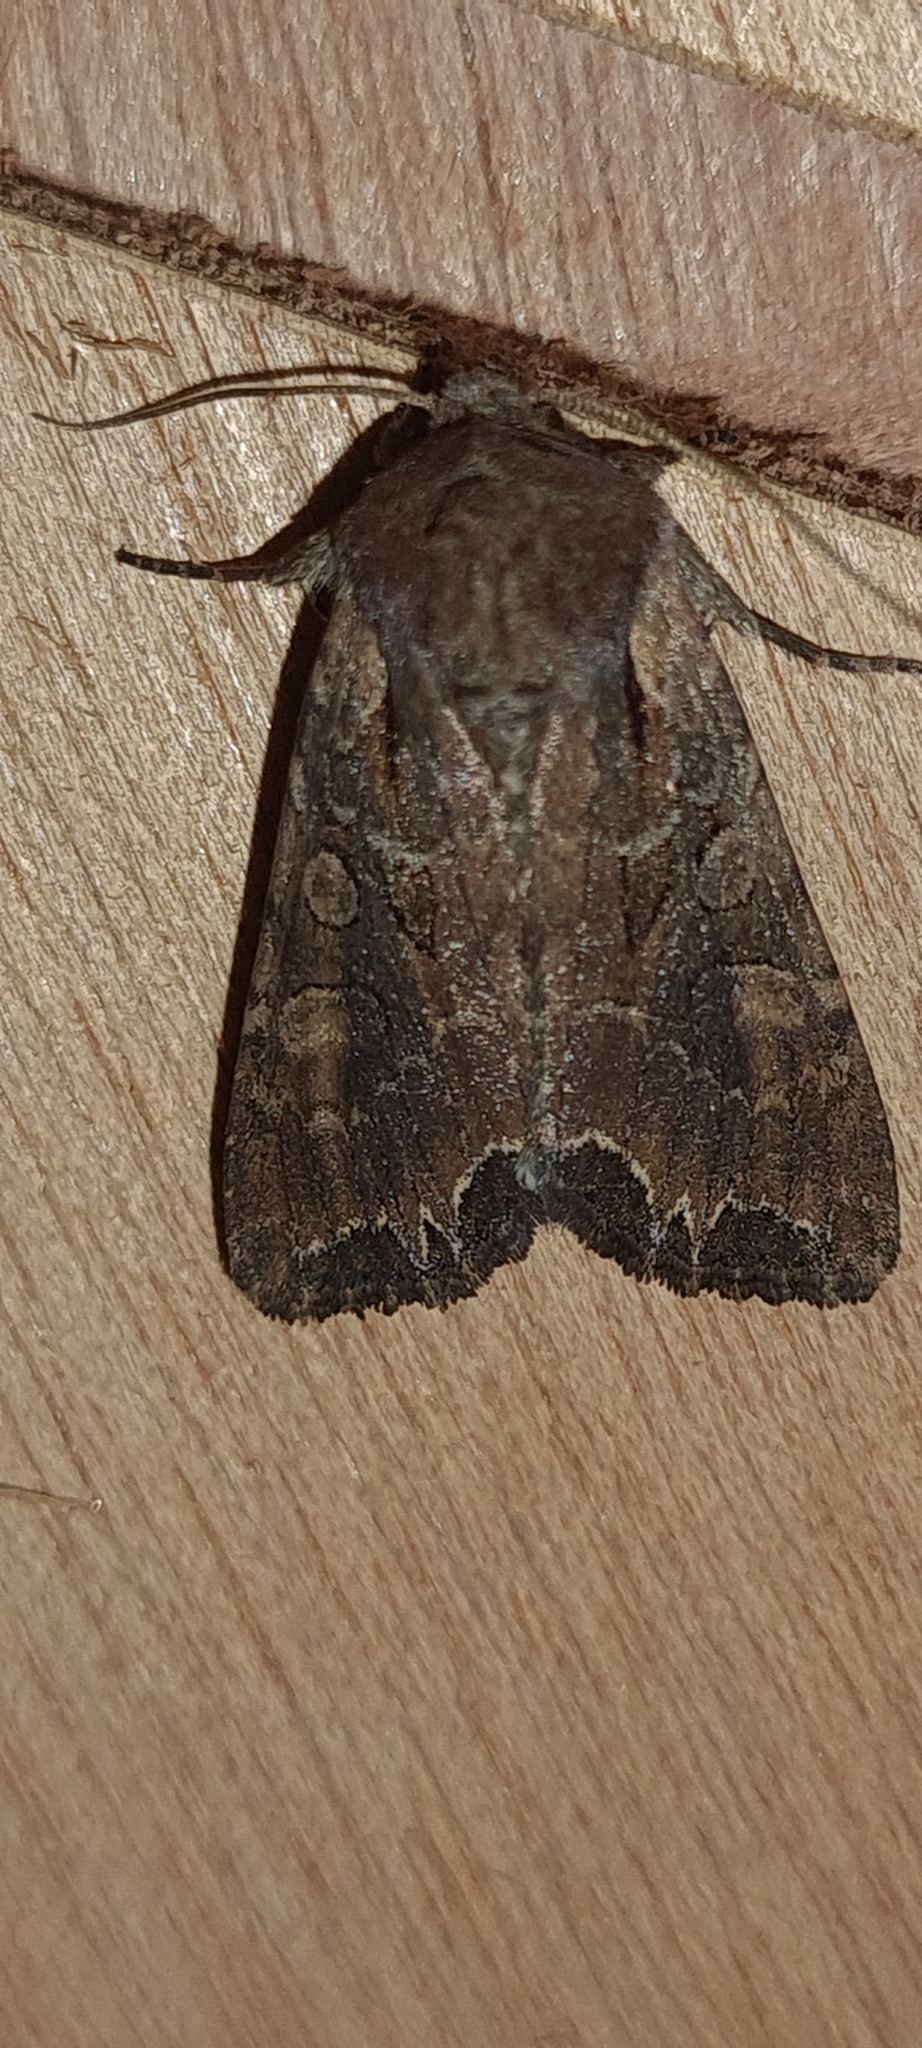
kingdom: Animalia
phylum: Arthropoda
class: Insecta
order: Lepidoptera
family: Noctuidae
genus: Lacanobia
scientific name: Lacanobia suasa
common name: Dog's tooth
